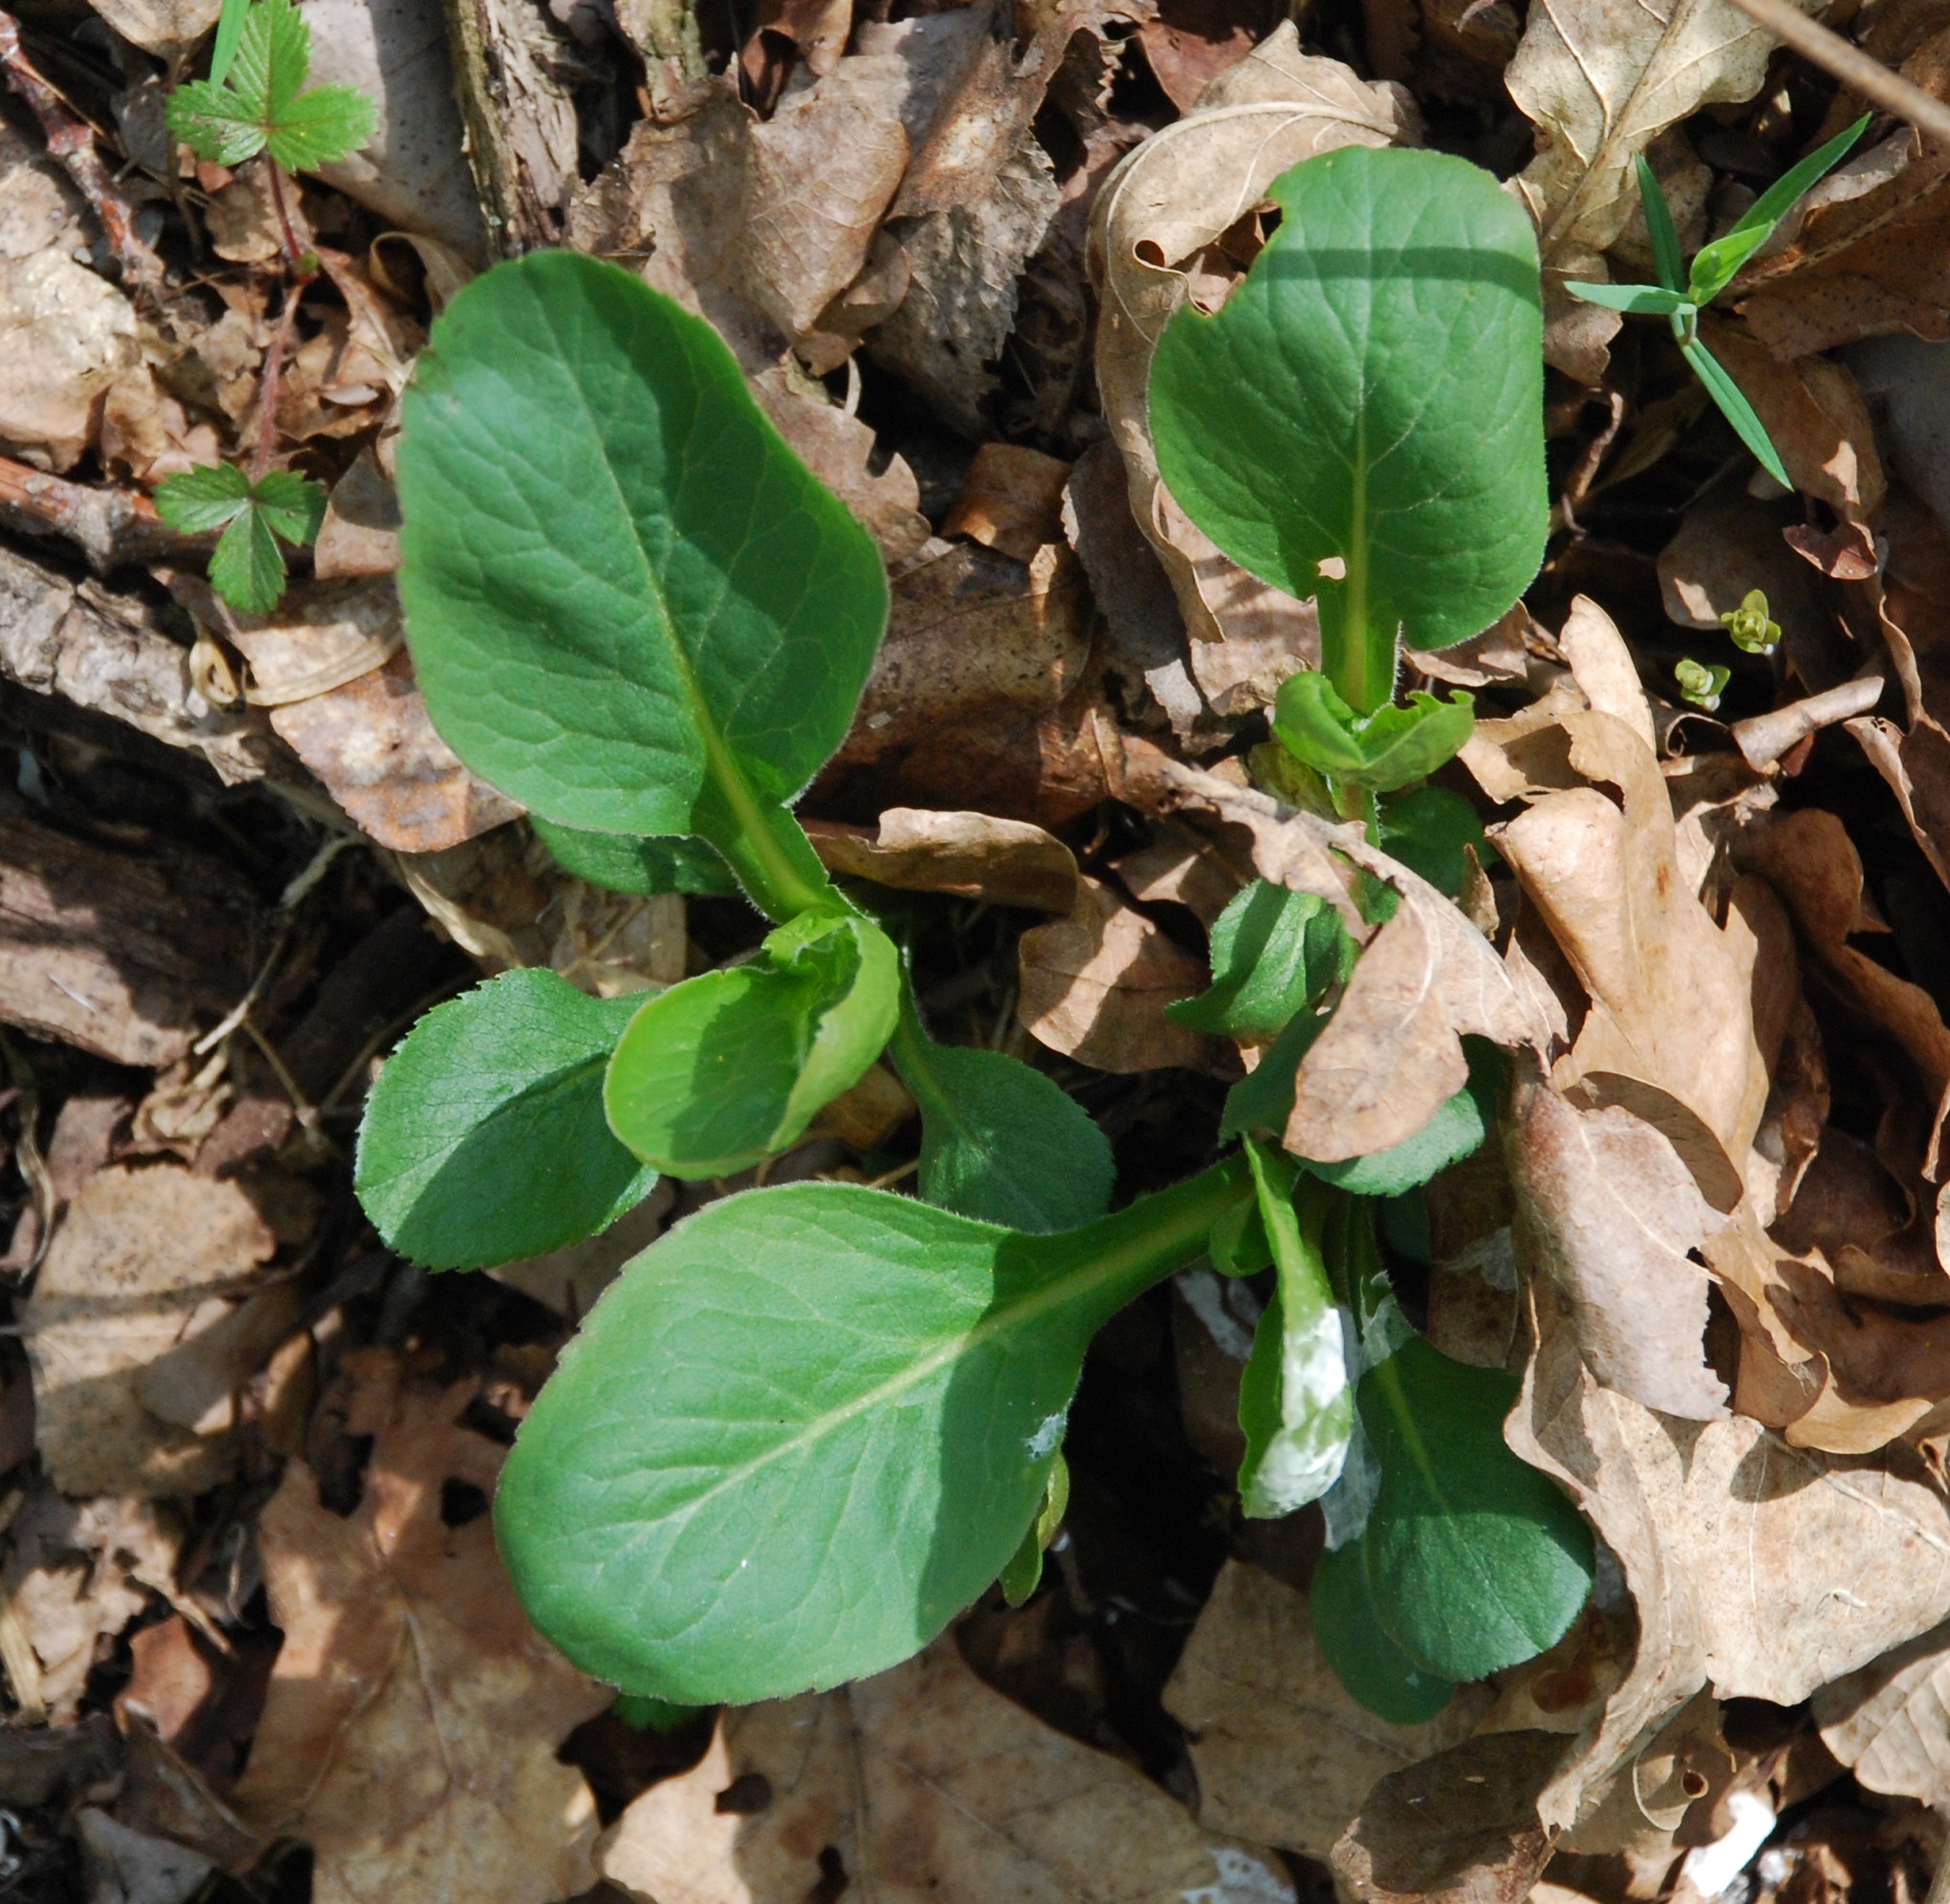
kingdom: Plantae
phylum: Tracheophyta
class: Magnoliopsida
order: Asterales
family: Asteraceae
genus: Solidago
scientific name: Solidago virgaurea
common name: Goldenrod
